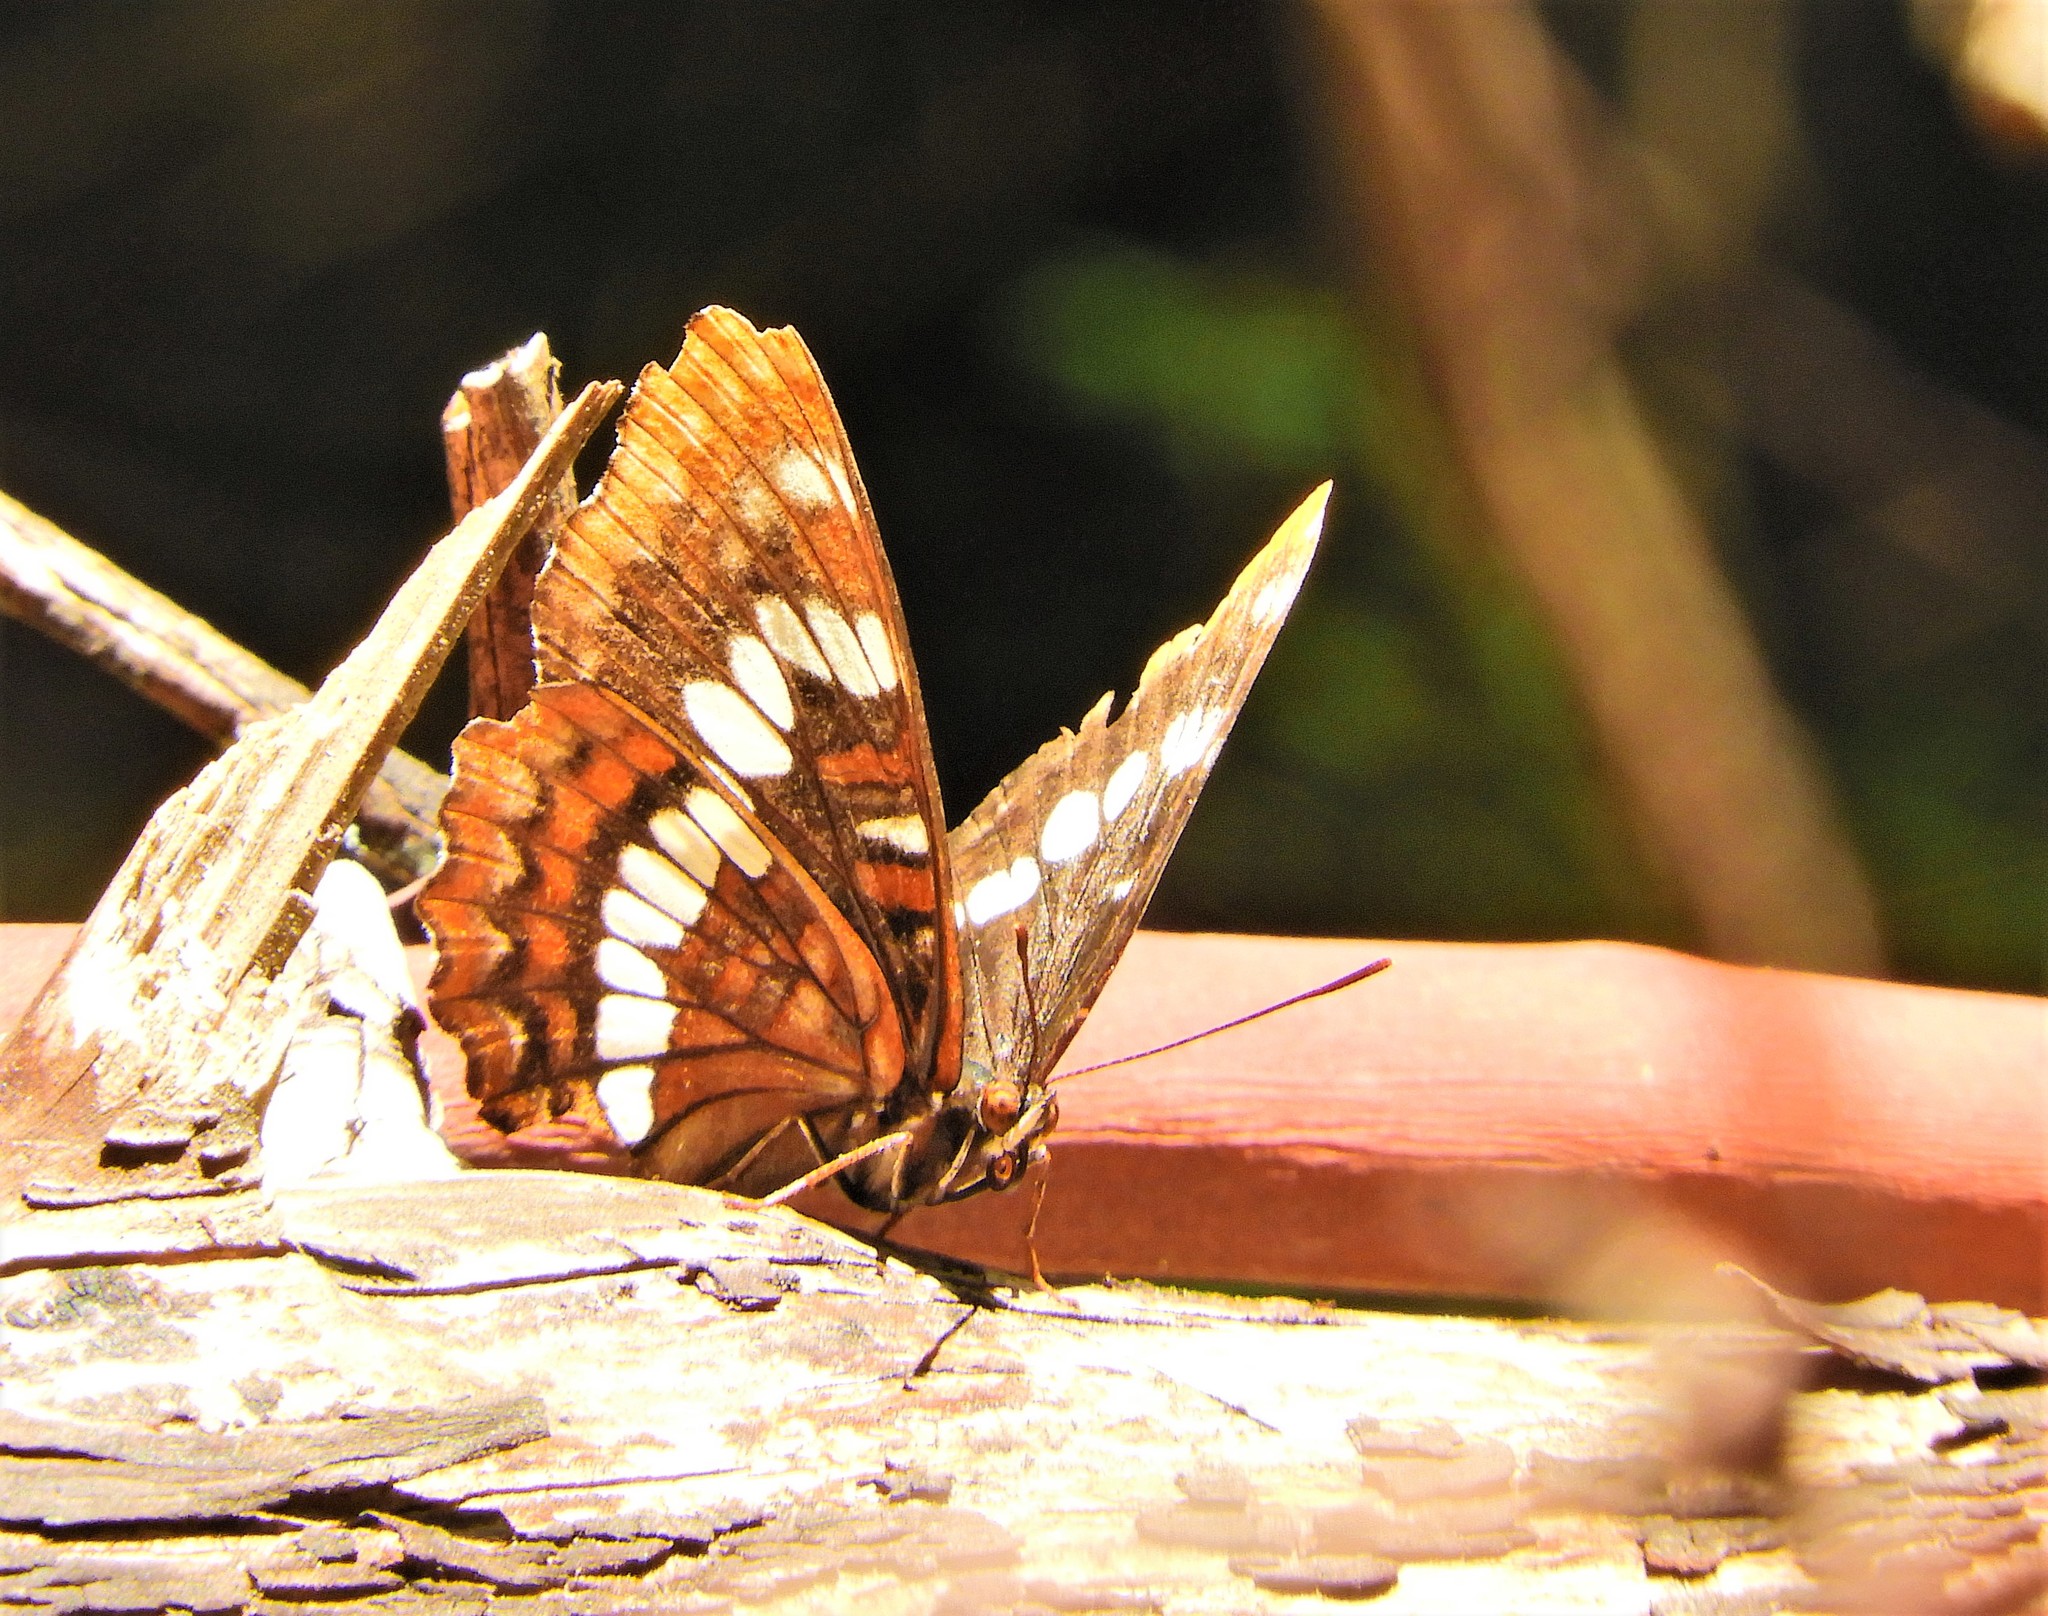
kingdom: Animalia
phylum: Arthropoda
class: Insecta
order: Lepidoptera
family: Nymphalidae
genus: Limenitis
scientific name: Limenitis lorquini
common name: Lorquin's admiral
